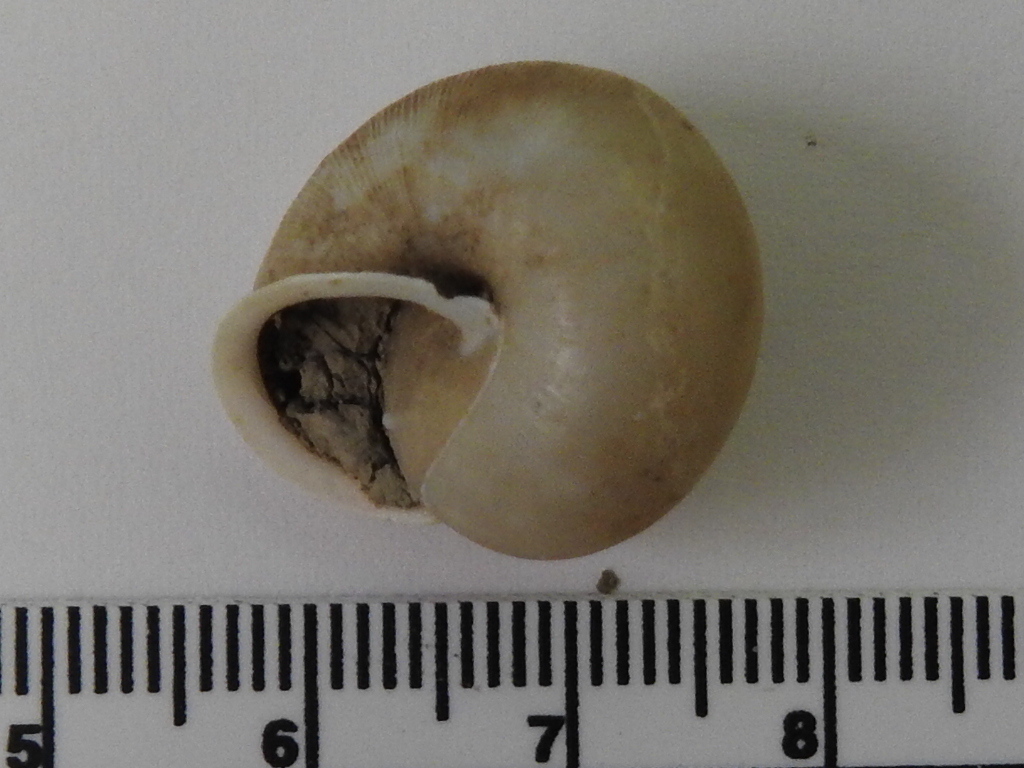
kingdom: Animalia
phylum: Mollusca
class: Gastropoda
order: Stylommatophora
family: Polygyridae
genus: Patera
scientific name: Patera roemeri
